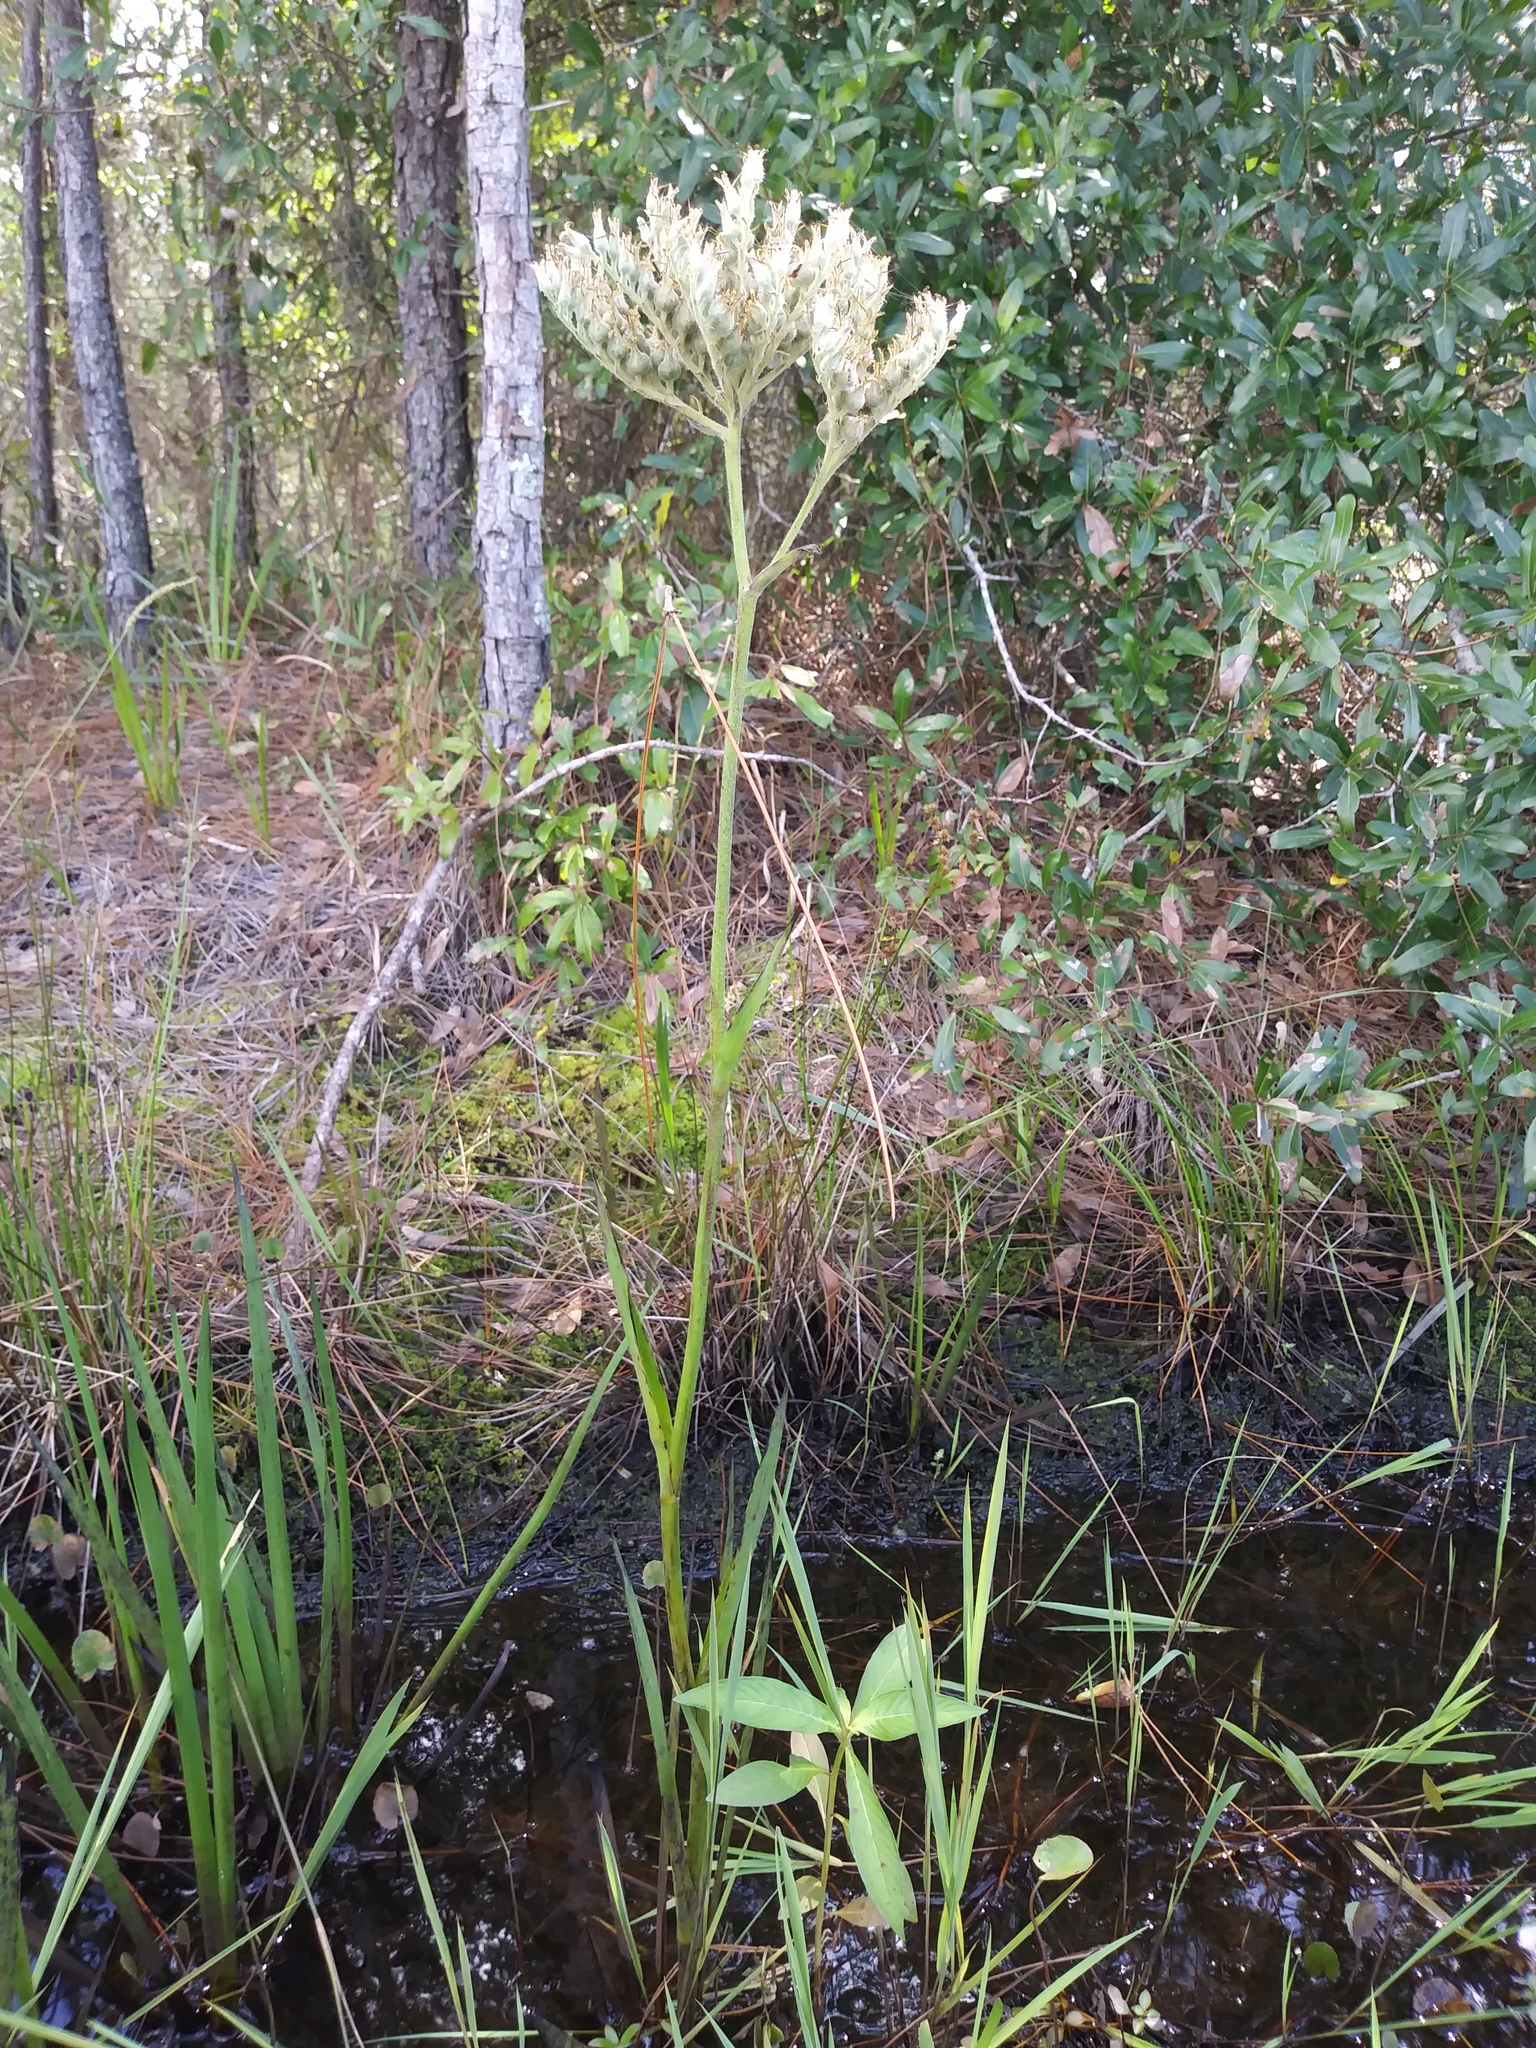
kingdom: Plantae
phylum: Tracheophyta
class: Liliopsida
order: Commelinales
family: Haemodoraceae
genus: Lachnanthes
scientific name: Lachnanthes caroliana
